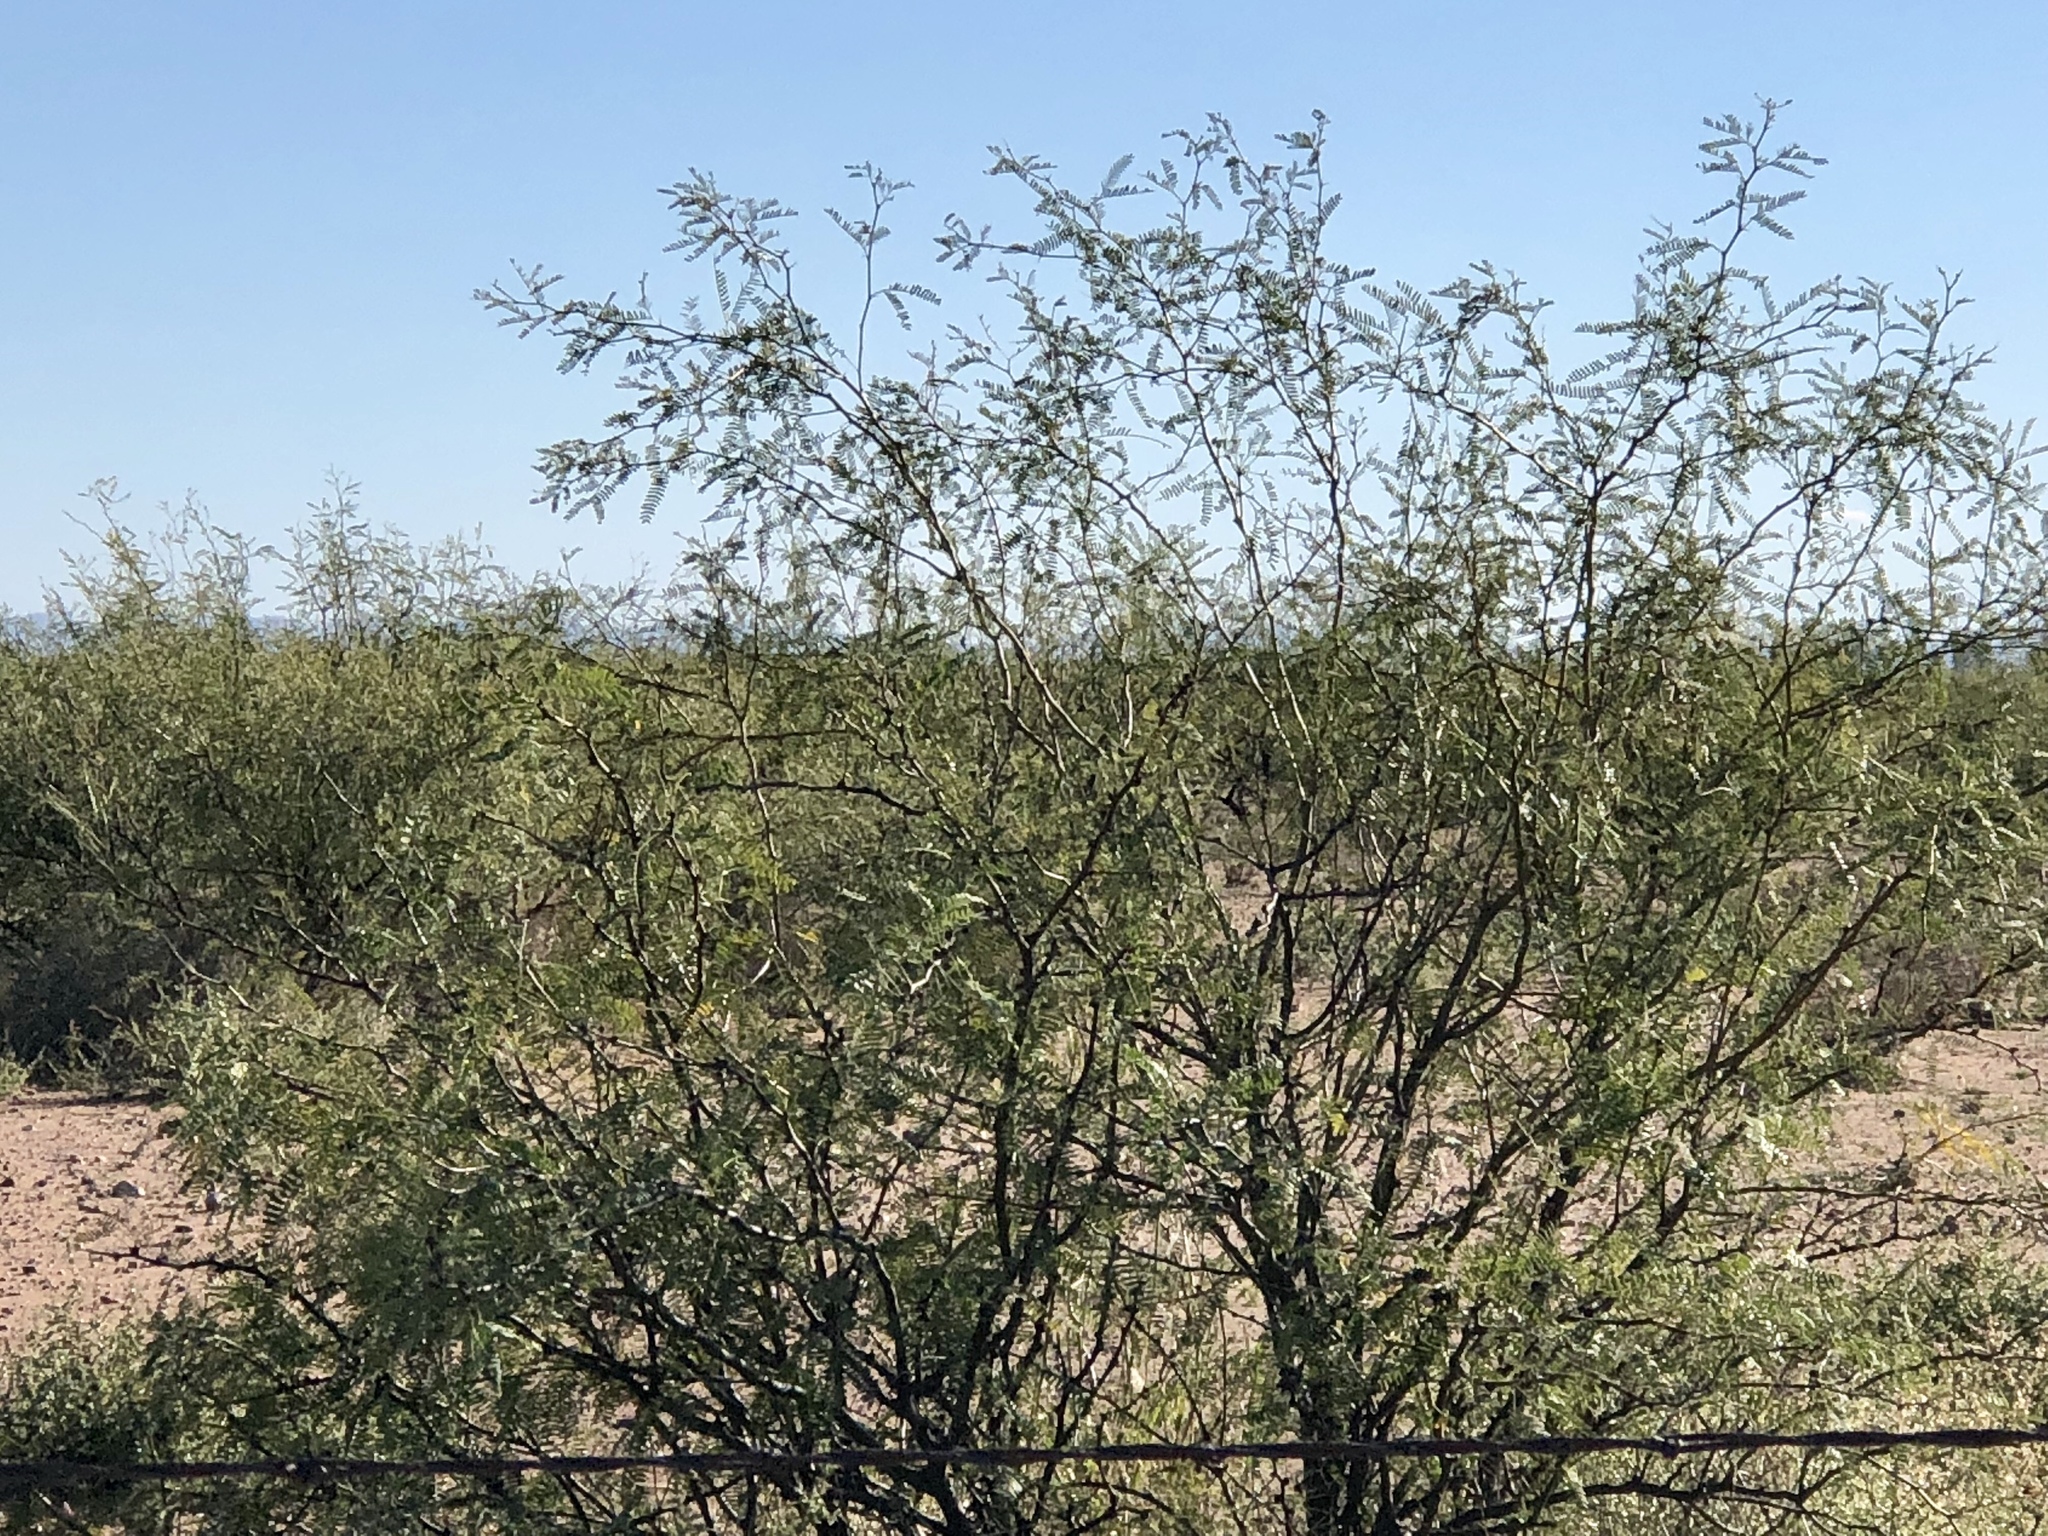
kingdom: Plantae
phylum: Tracheophyta
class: Magnoliopsida
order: Fabales
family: Fabaceae
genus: Prosopis
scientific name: Prosopis glandulosa
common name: Honey mesquite
